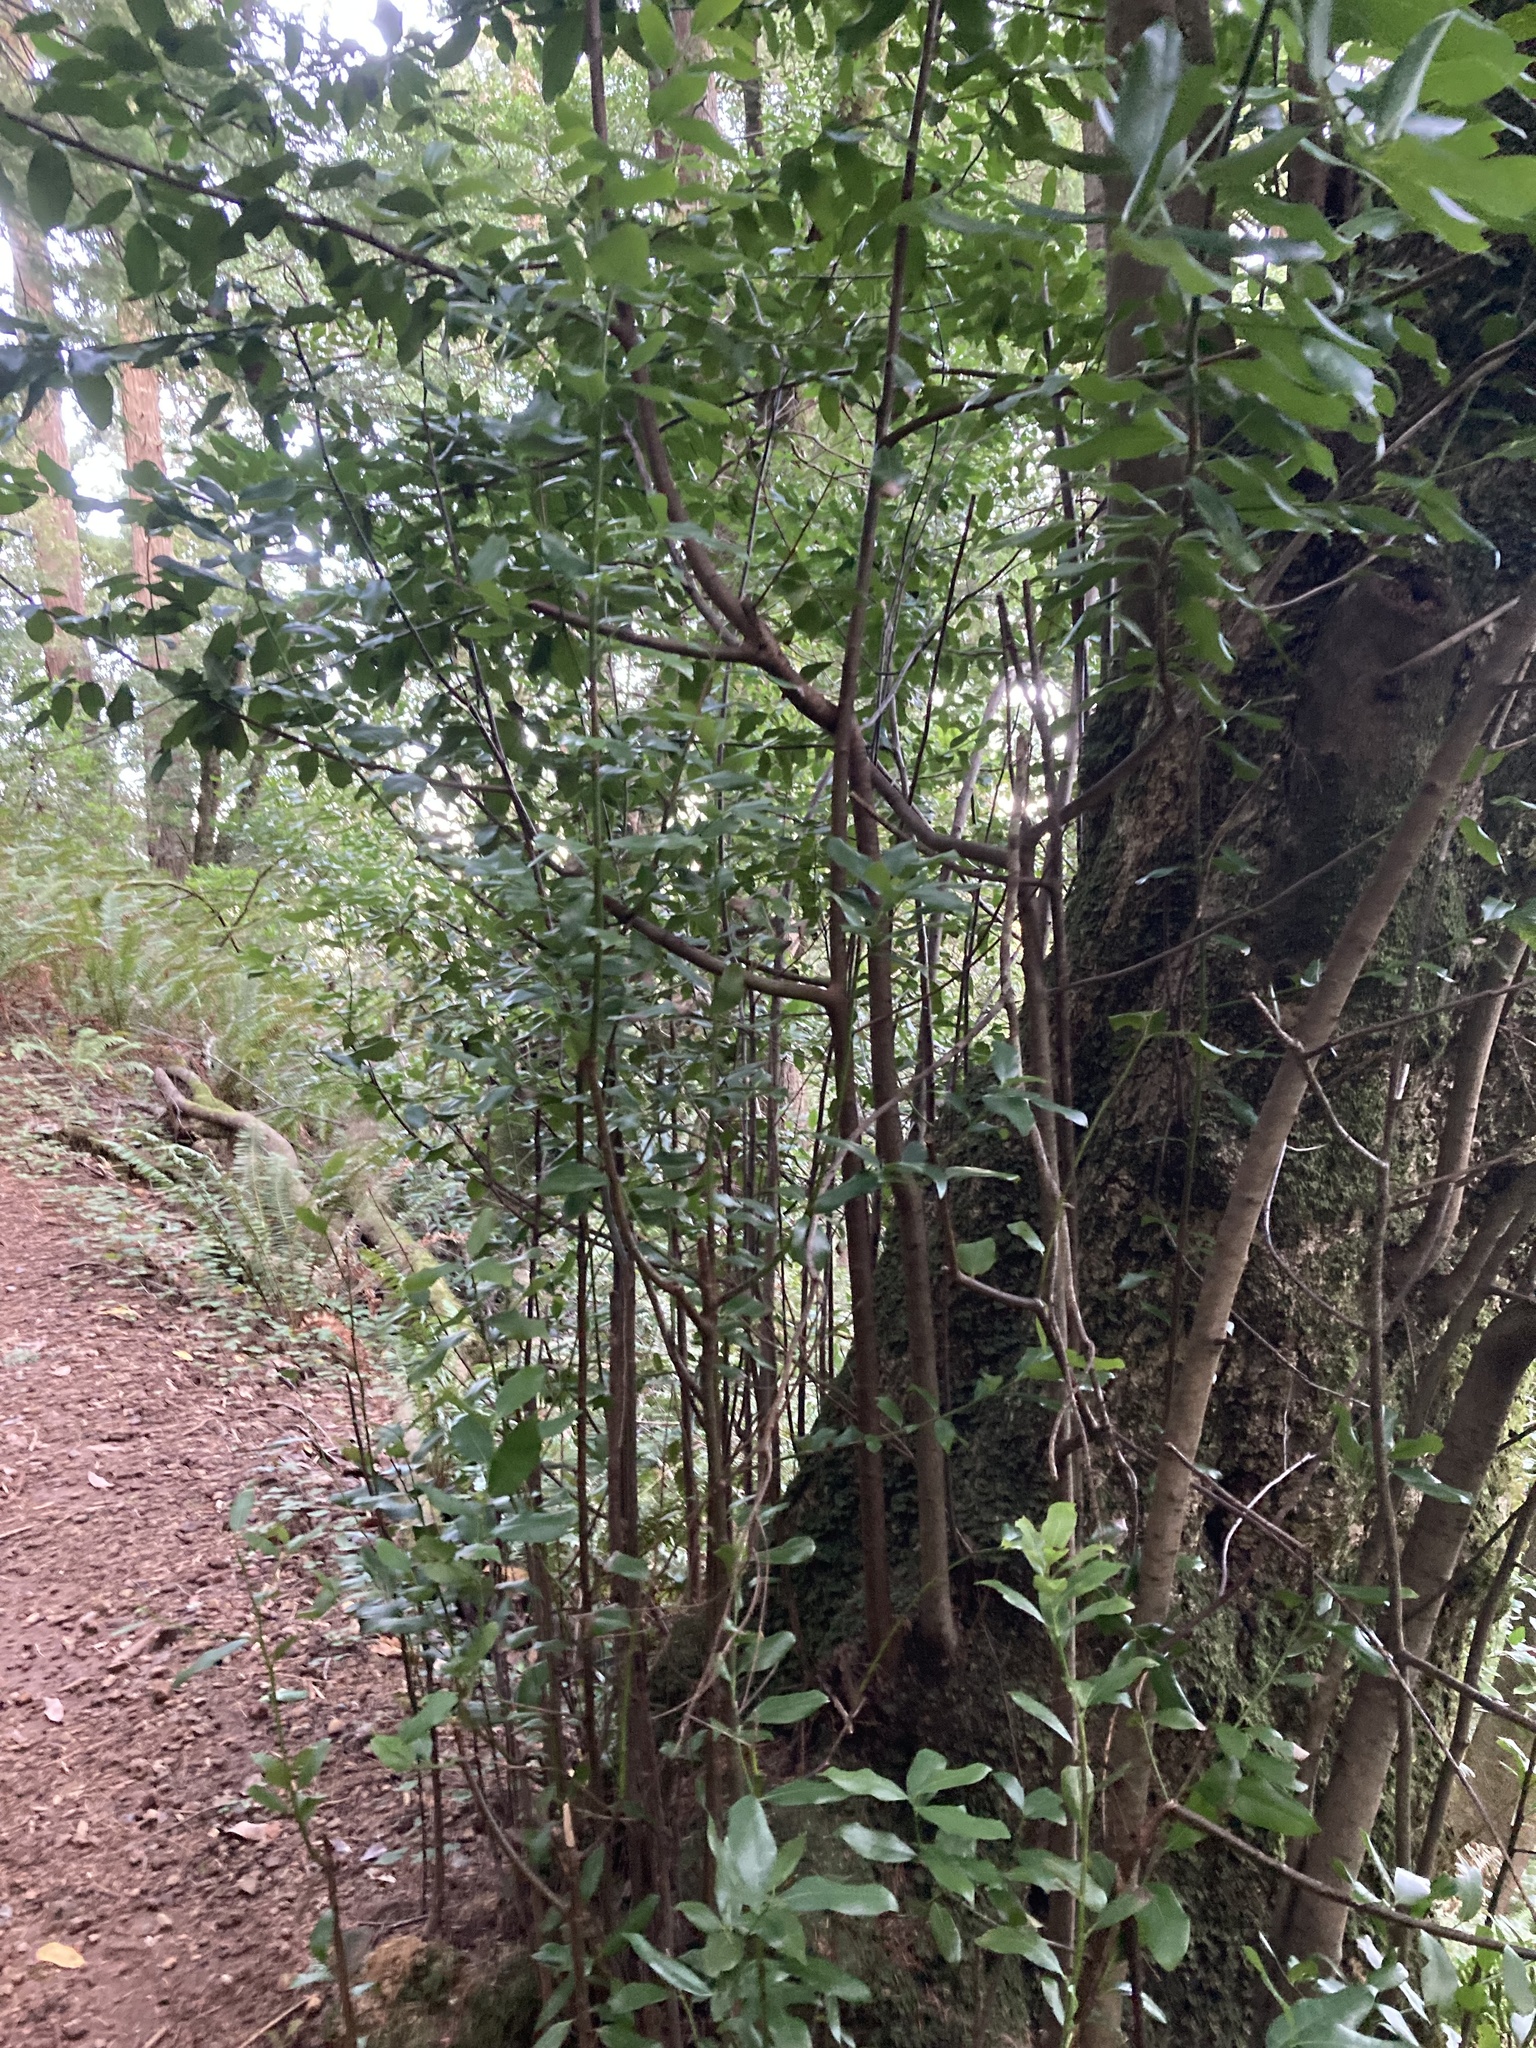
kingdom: Plantae
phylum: Tracheophyta
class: Magnoliopsida
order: Laurales
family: Lauraceae
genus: Umbellularia
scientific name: Umbellularia californica
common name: California bay
